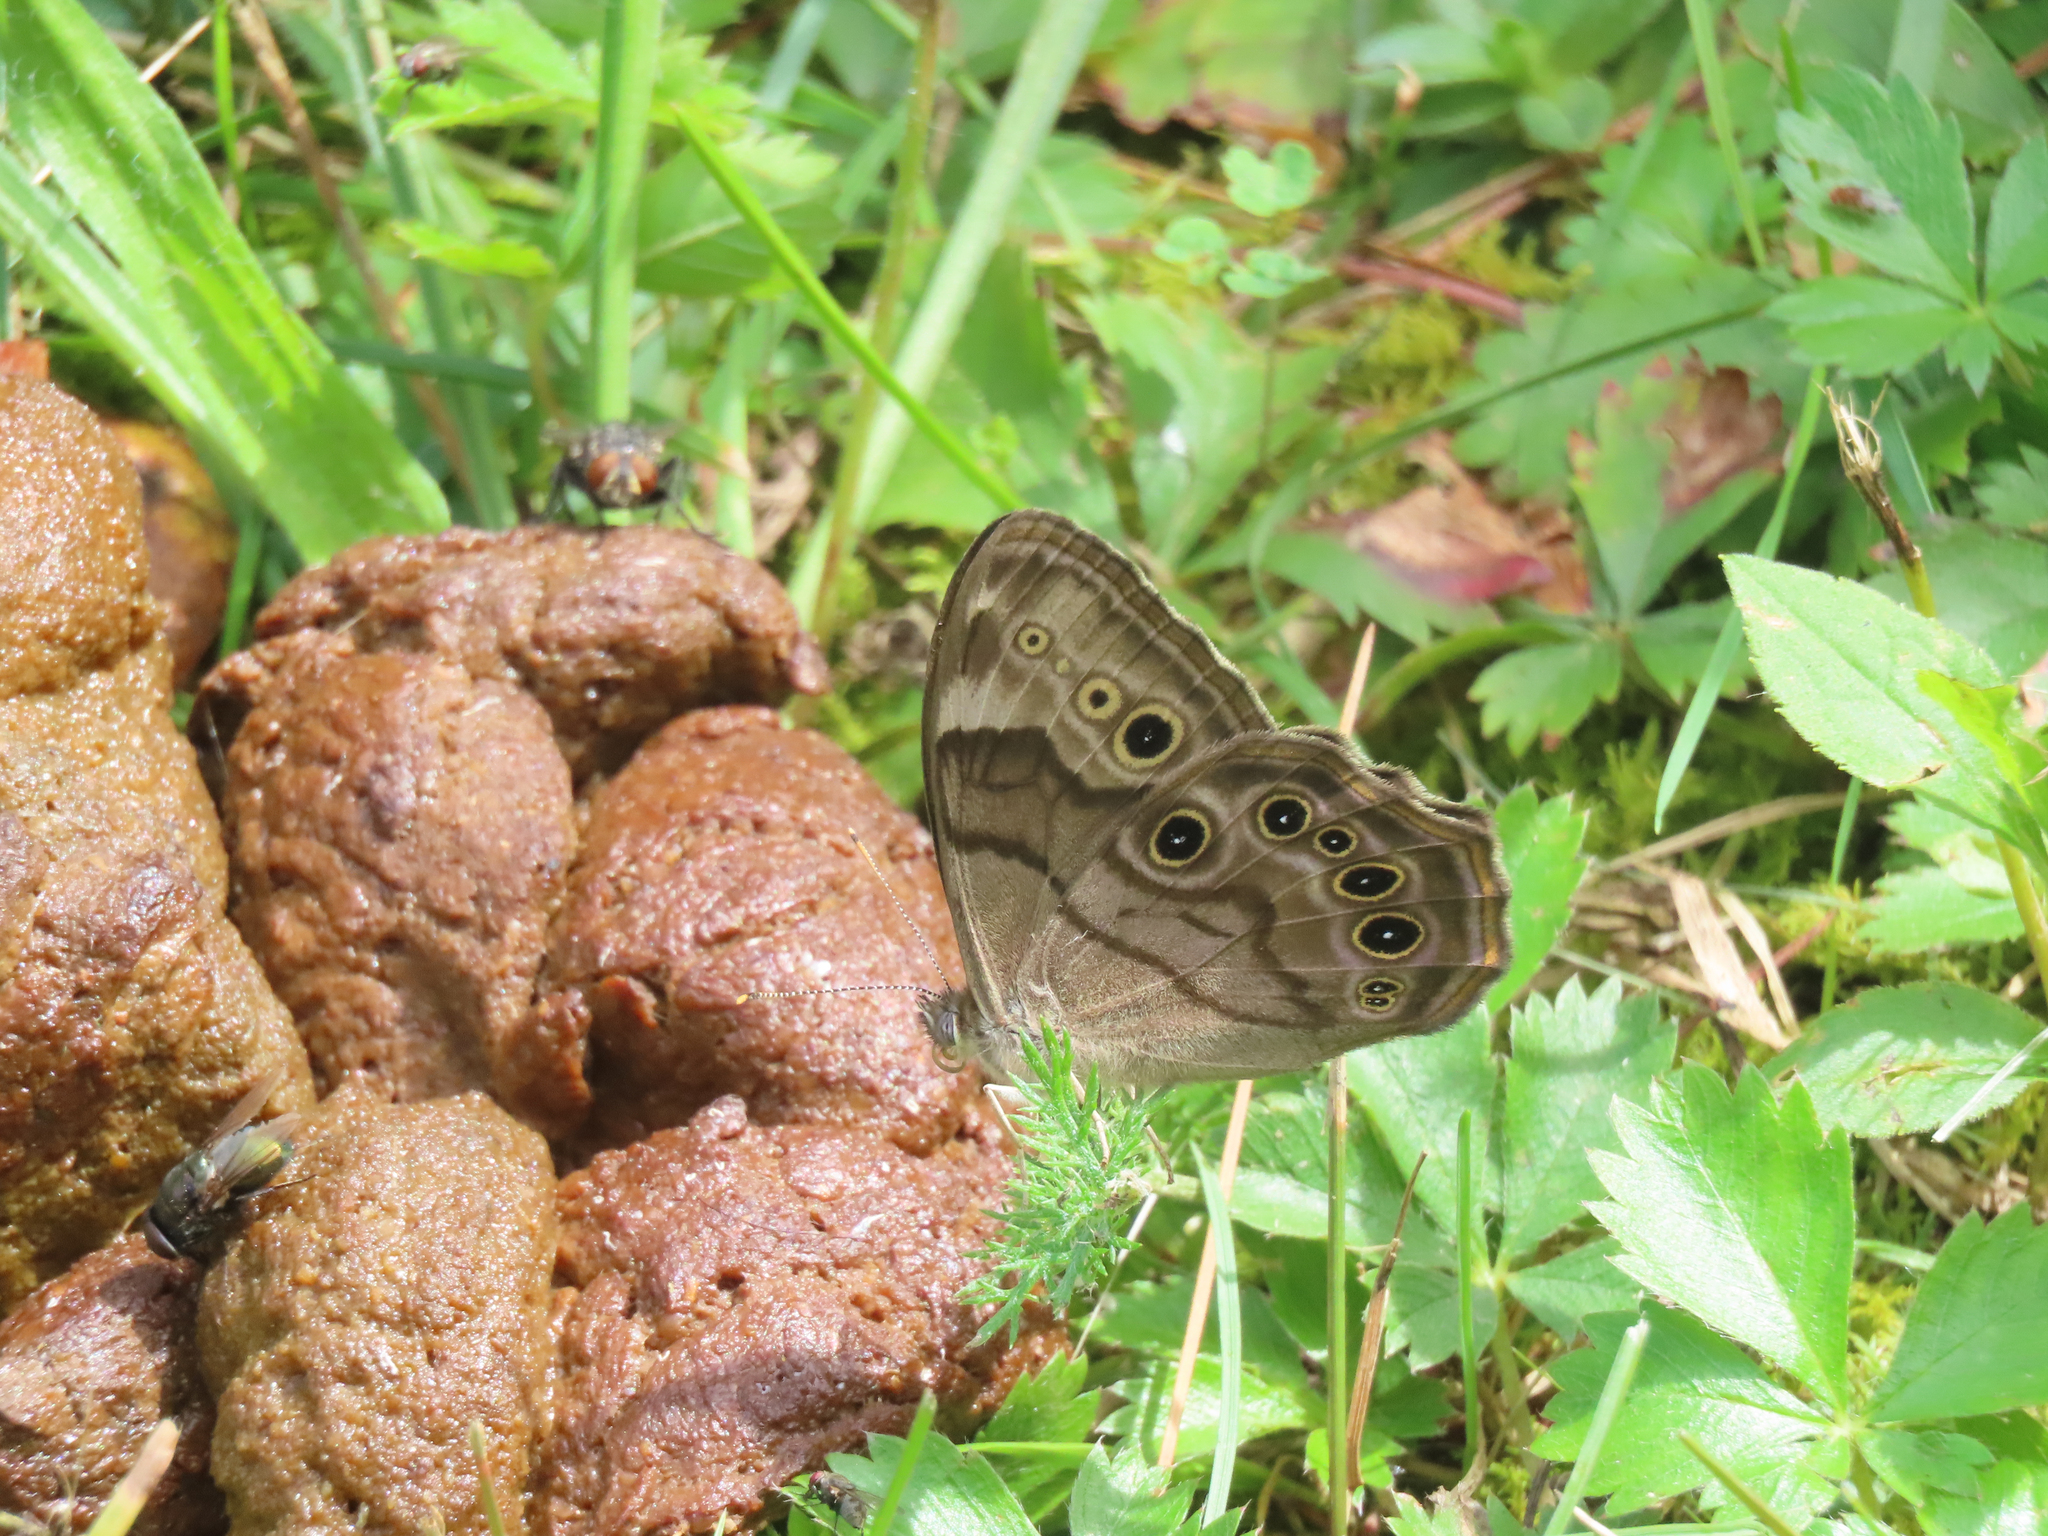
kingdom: Animalia
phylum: Arthropoda
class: Insecta
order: Lepidoptera
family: Nymphalidae
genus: Lethe
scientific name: Lethe anthedon
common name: Northern pearly-eye
